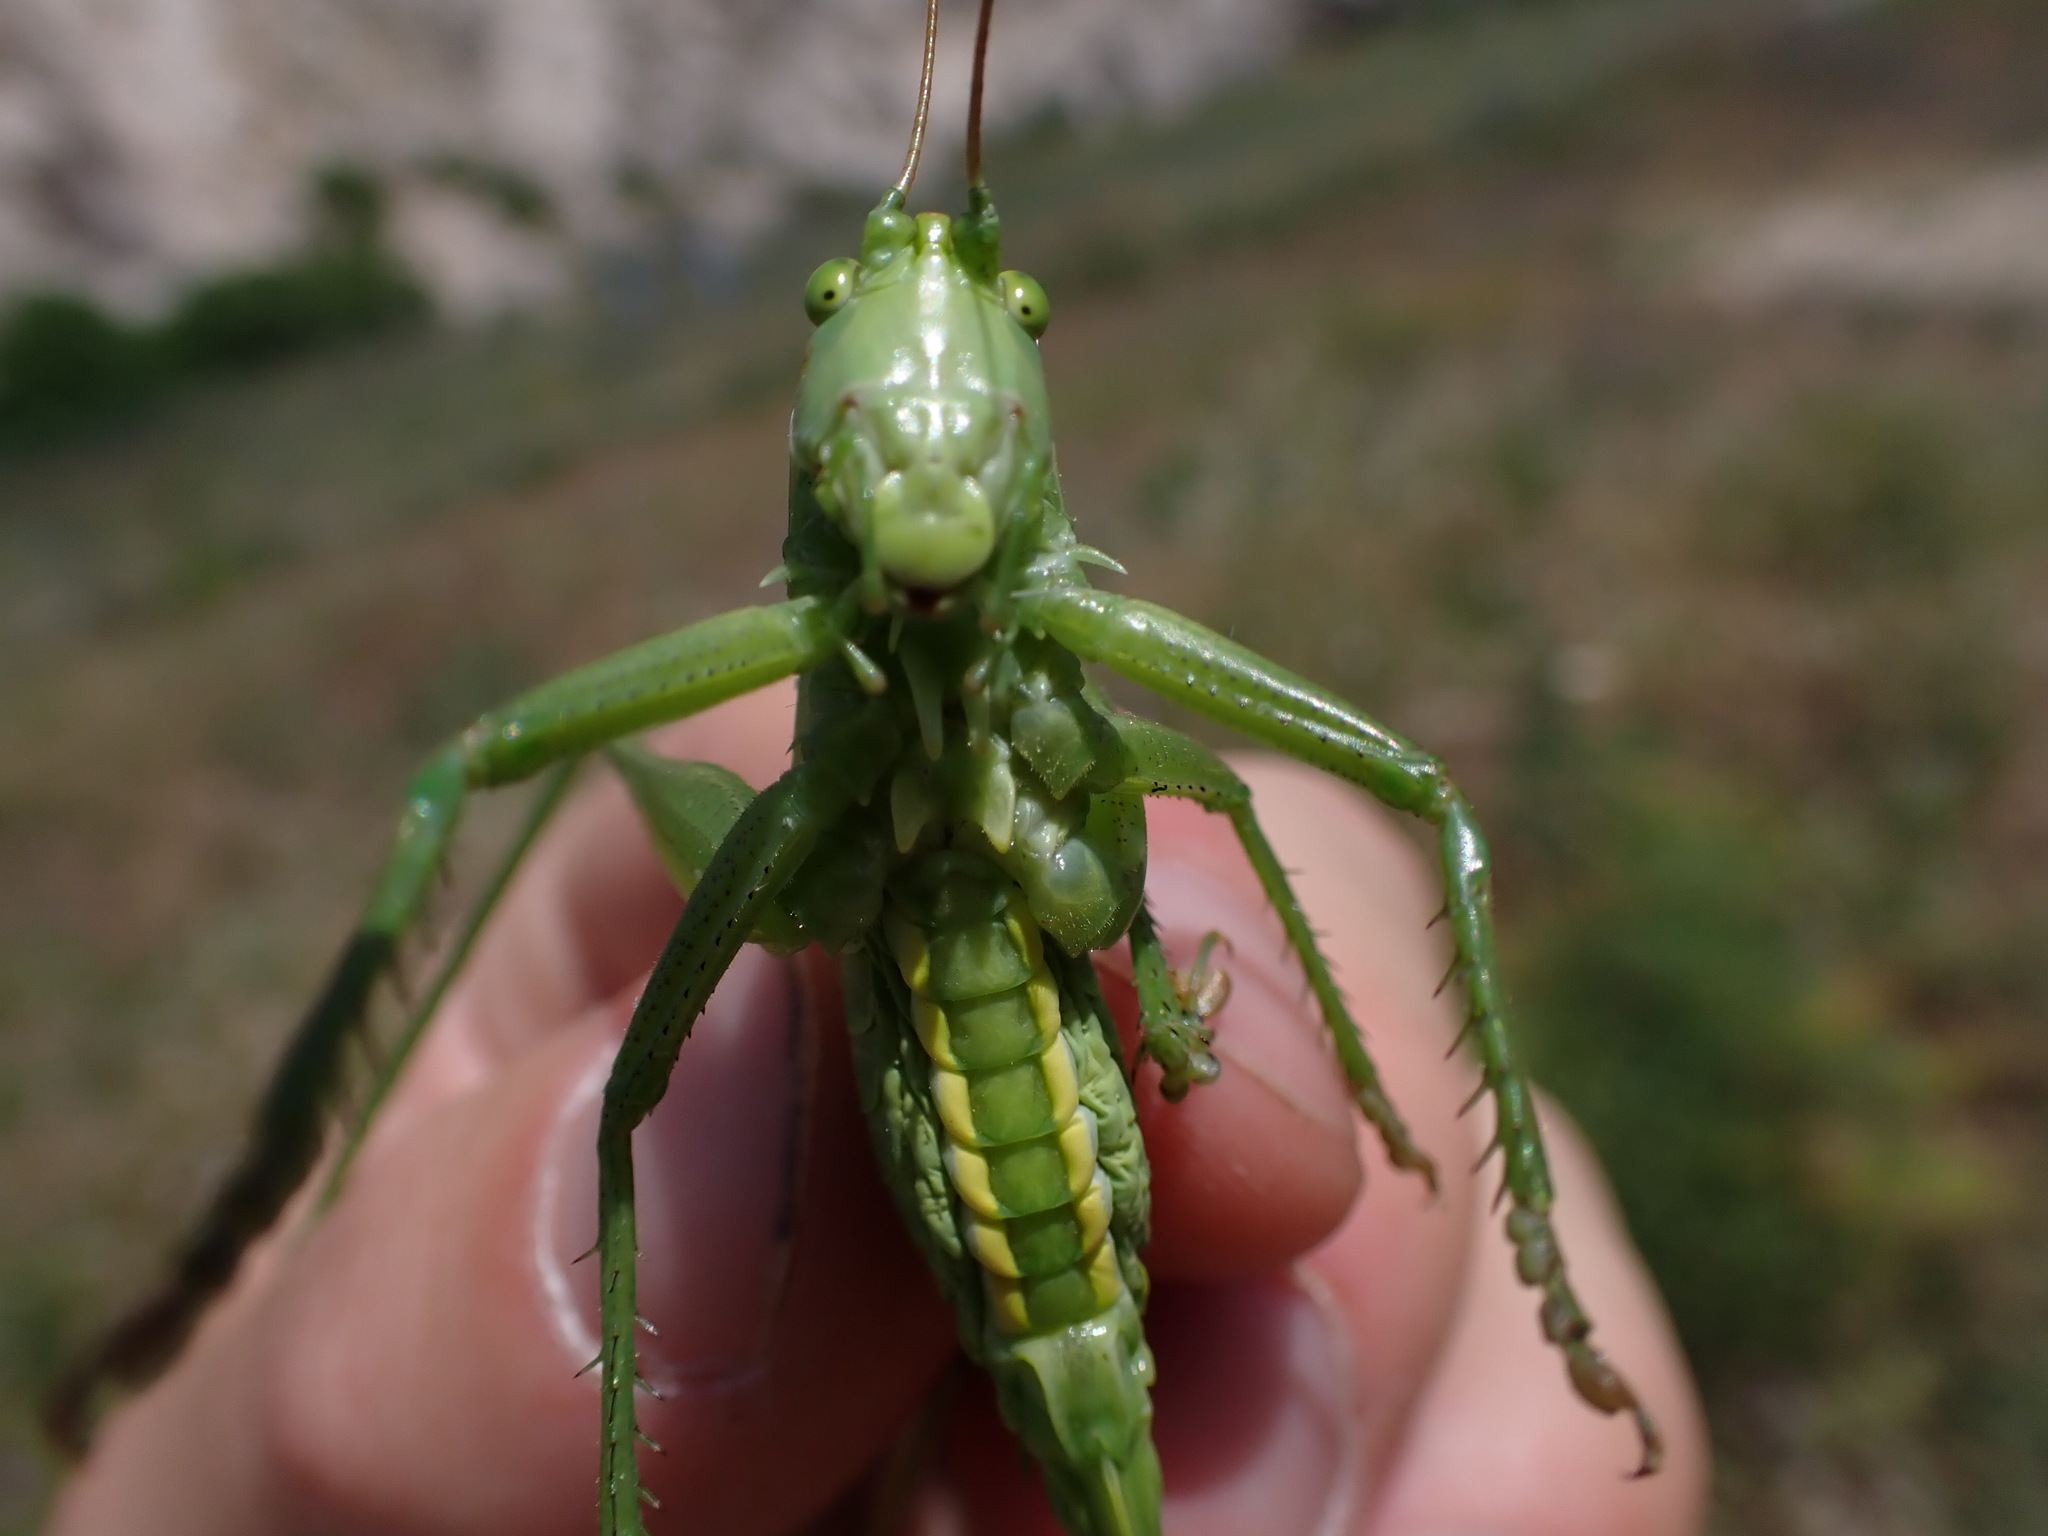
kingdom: Animalia
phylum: Arthropoda
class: Insecta
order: Orthoptera
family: Tettigoniidae
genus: Tettigonia
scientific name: Tettigonia viridissima
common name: Great green bush-cricket
